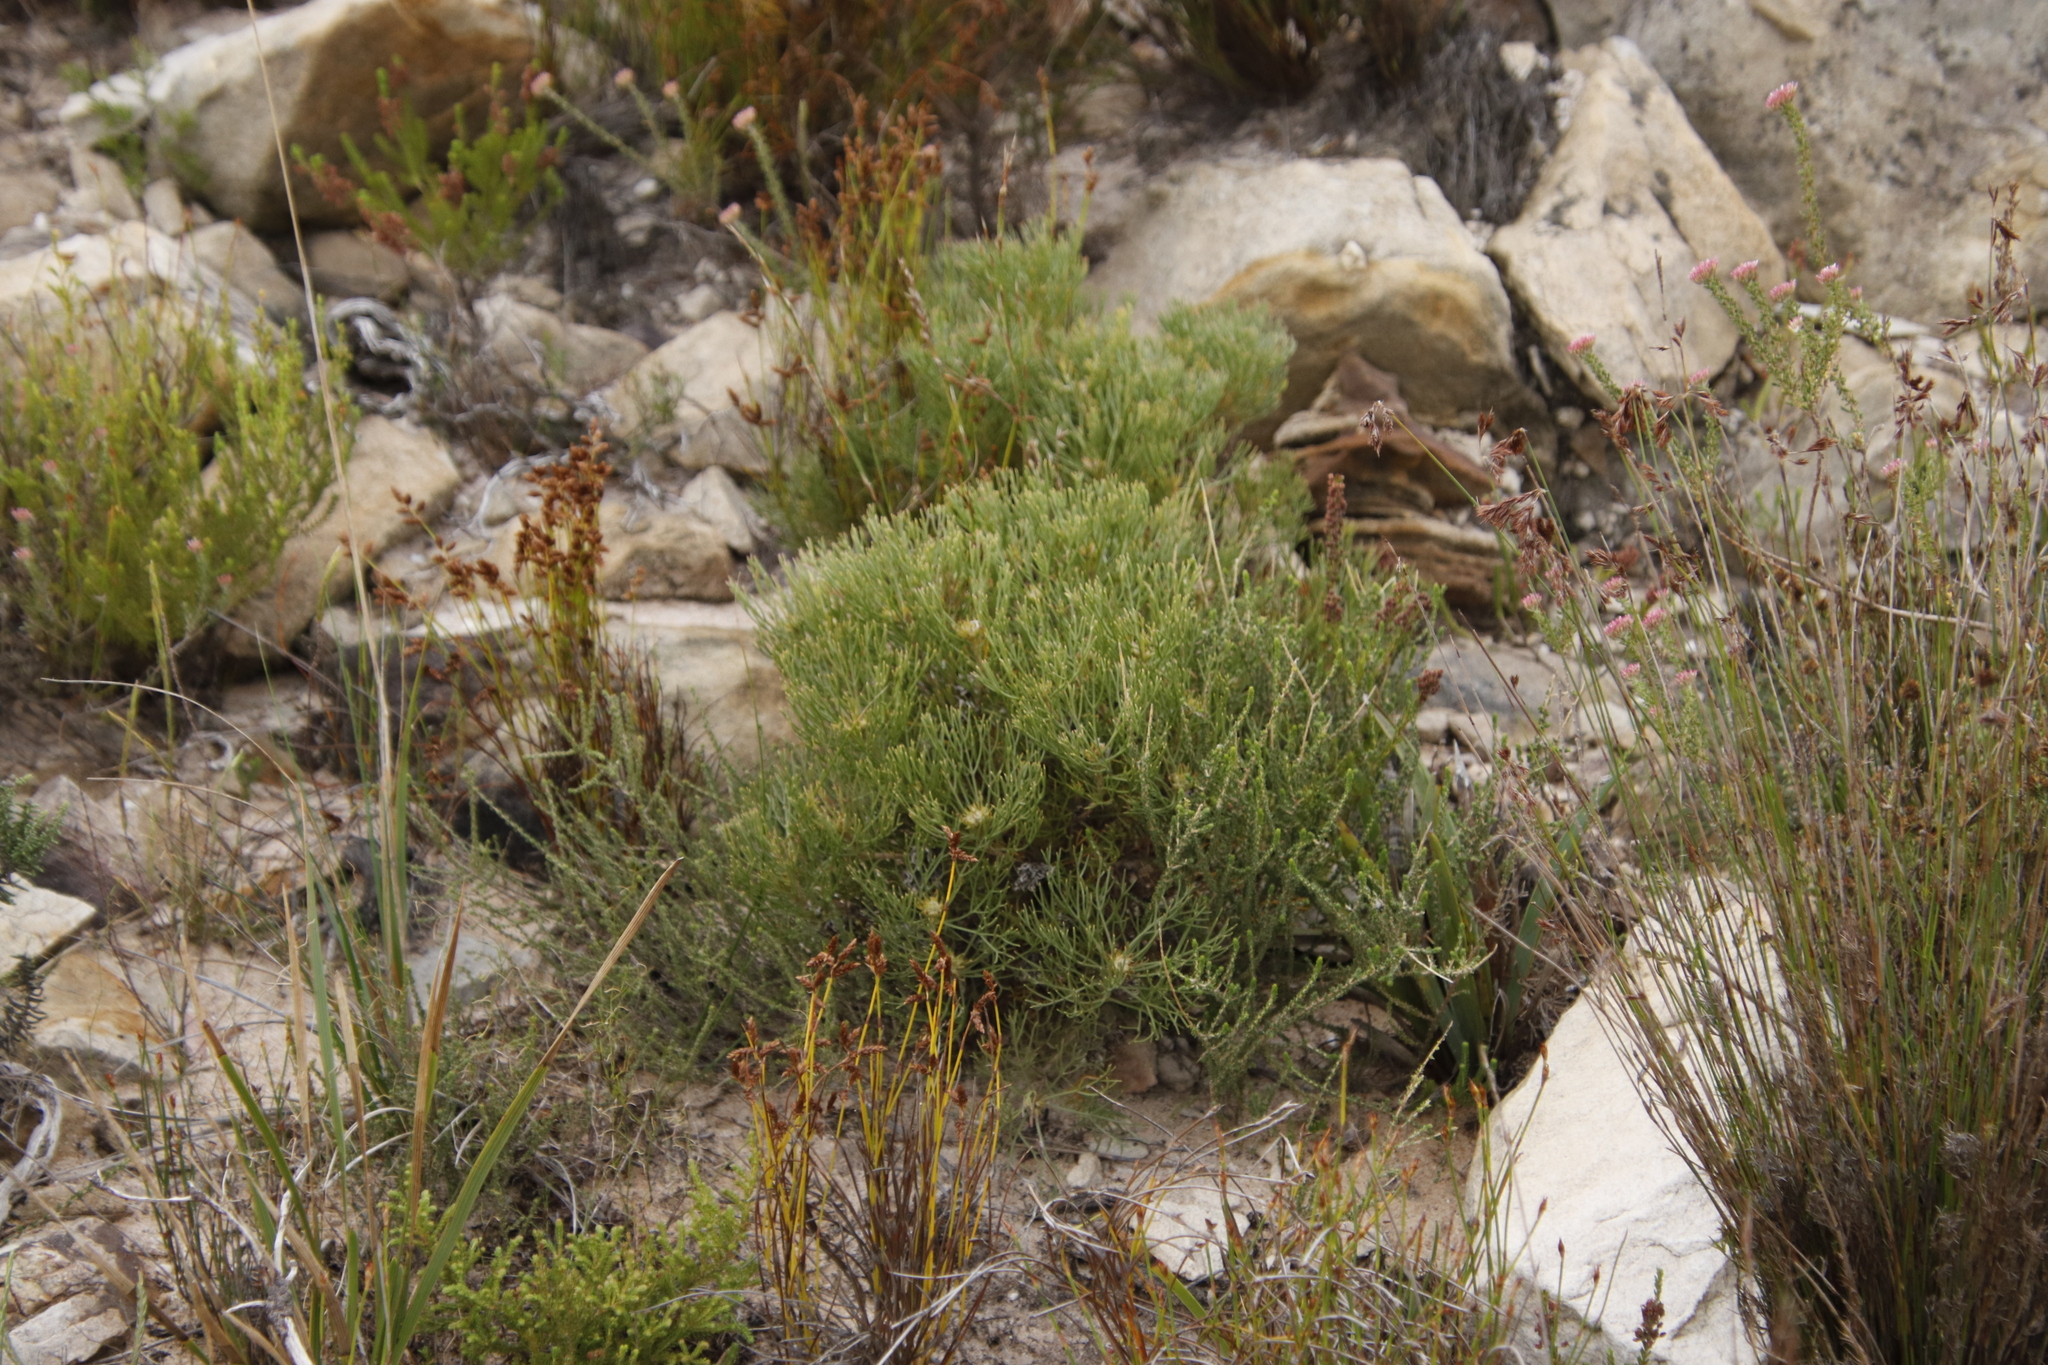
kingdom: Plantae
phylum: Tracheophyta
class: Magnoliopsida
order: Proteales
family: Proteaceae
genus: Serruria
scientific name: Serruria ascendens
